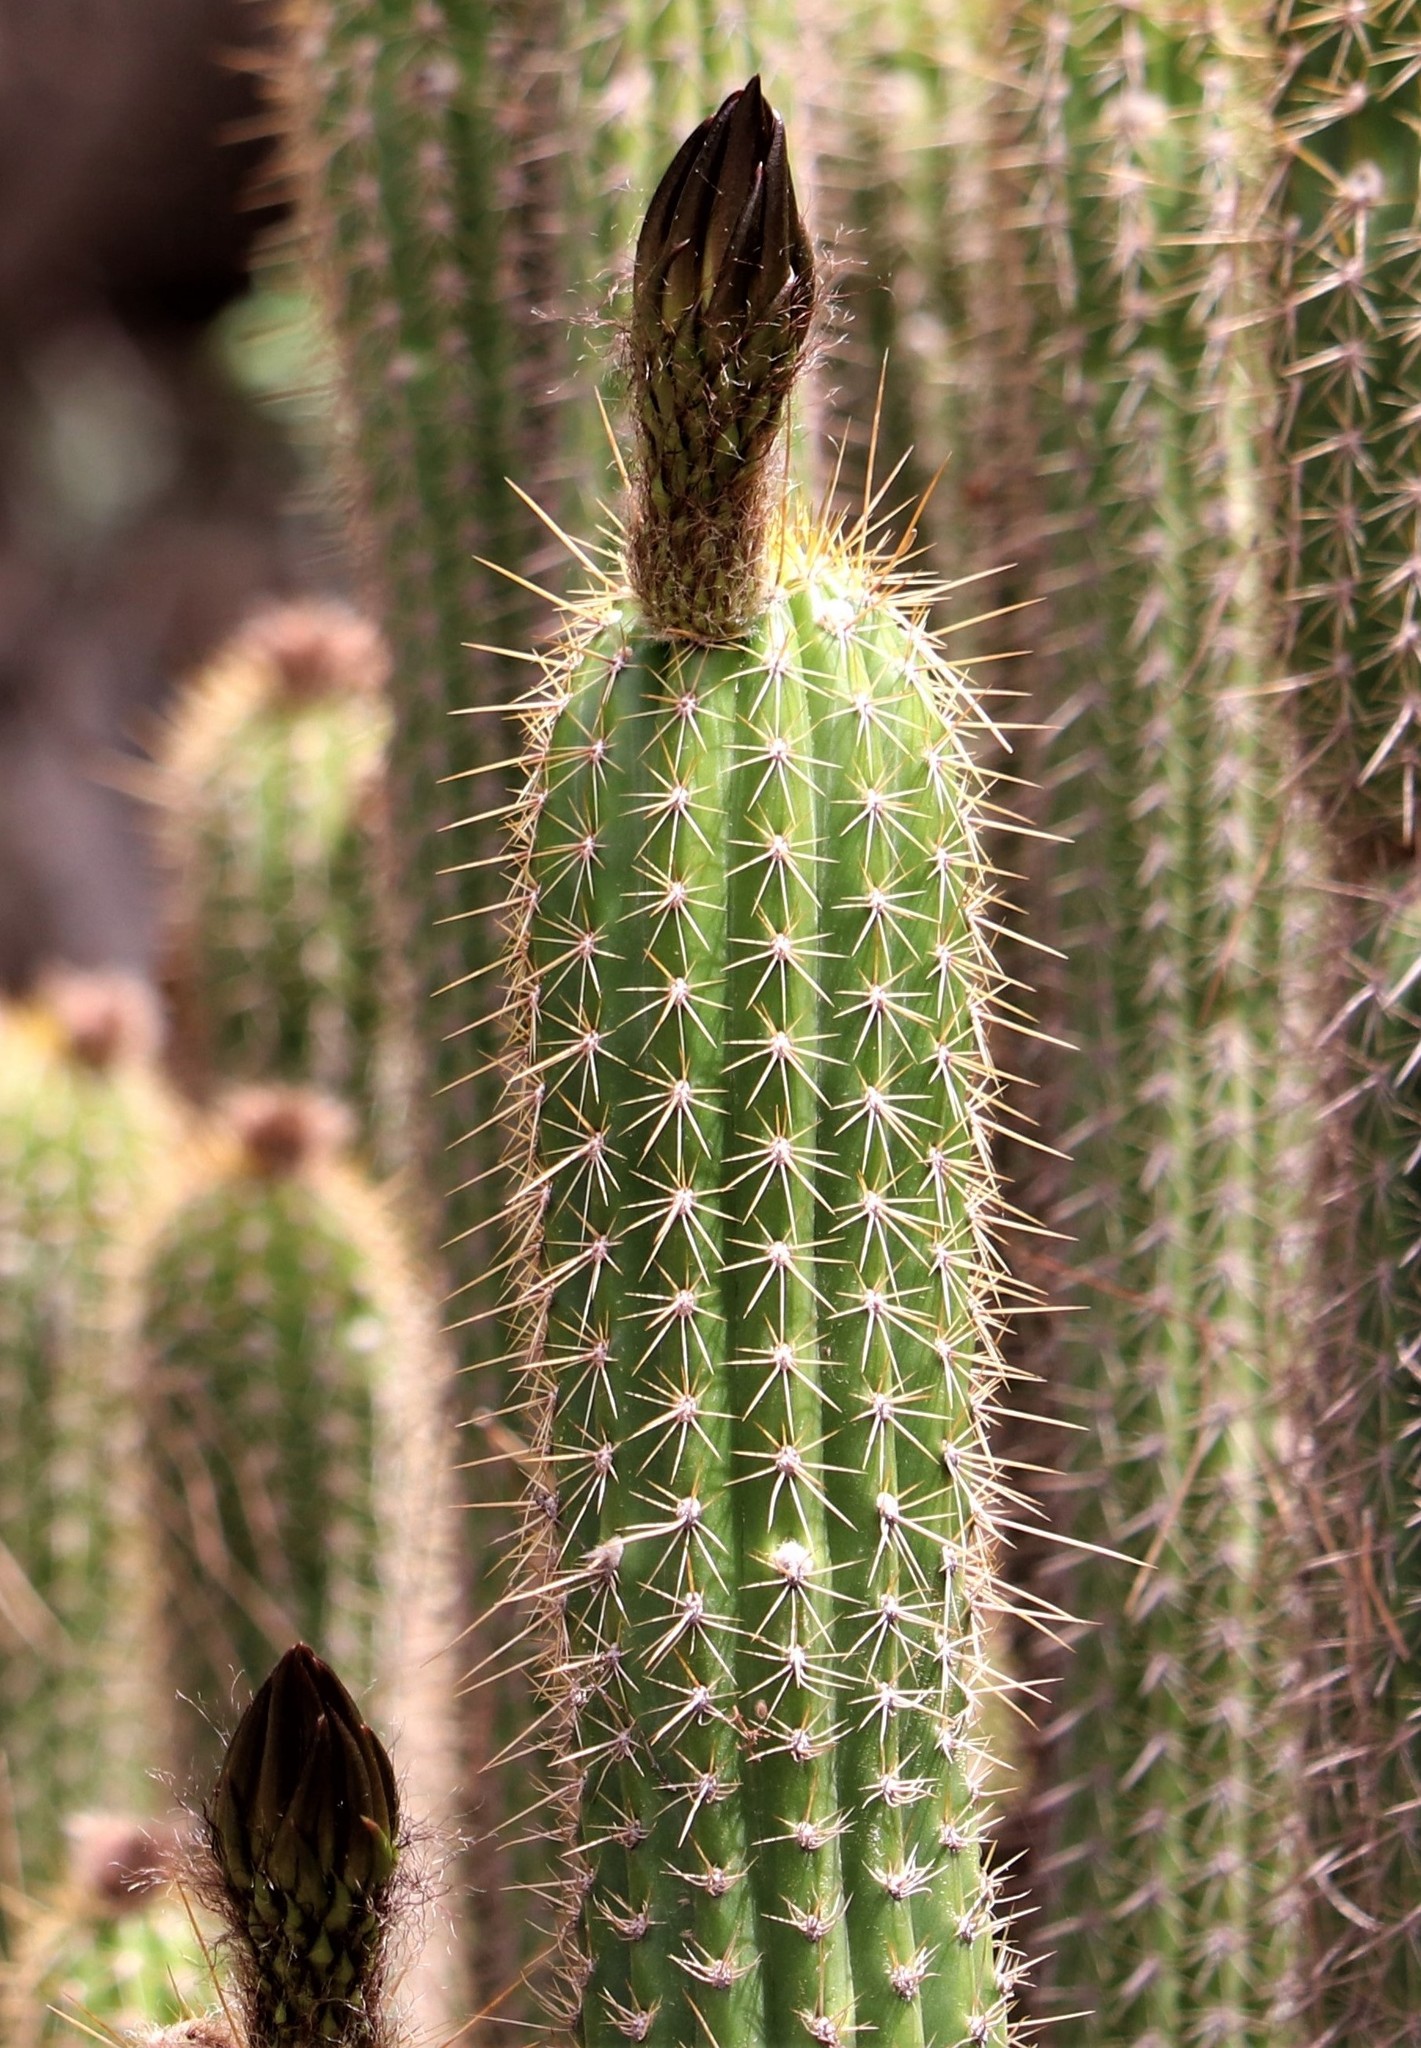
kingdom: Plantae
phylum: Tracheophyta
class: Magnoliopsida
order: Caryophyllales
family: Cactaceae
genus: Soehrensia
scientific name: Soehrensia spachiana
